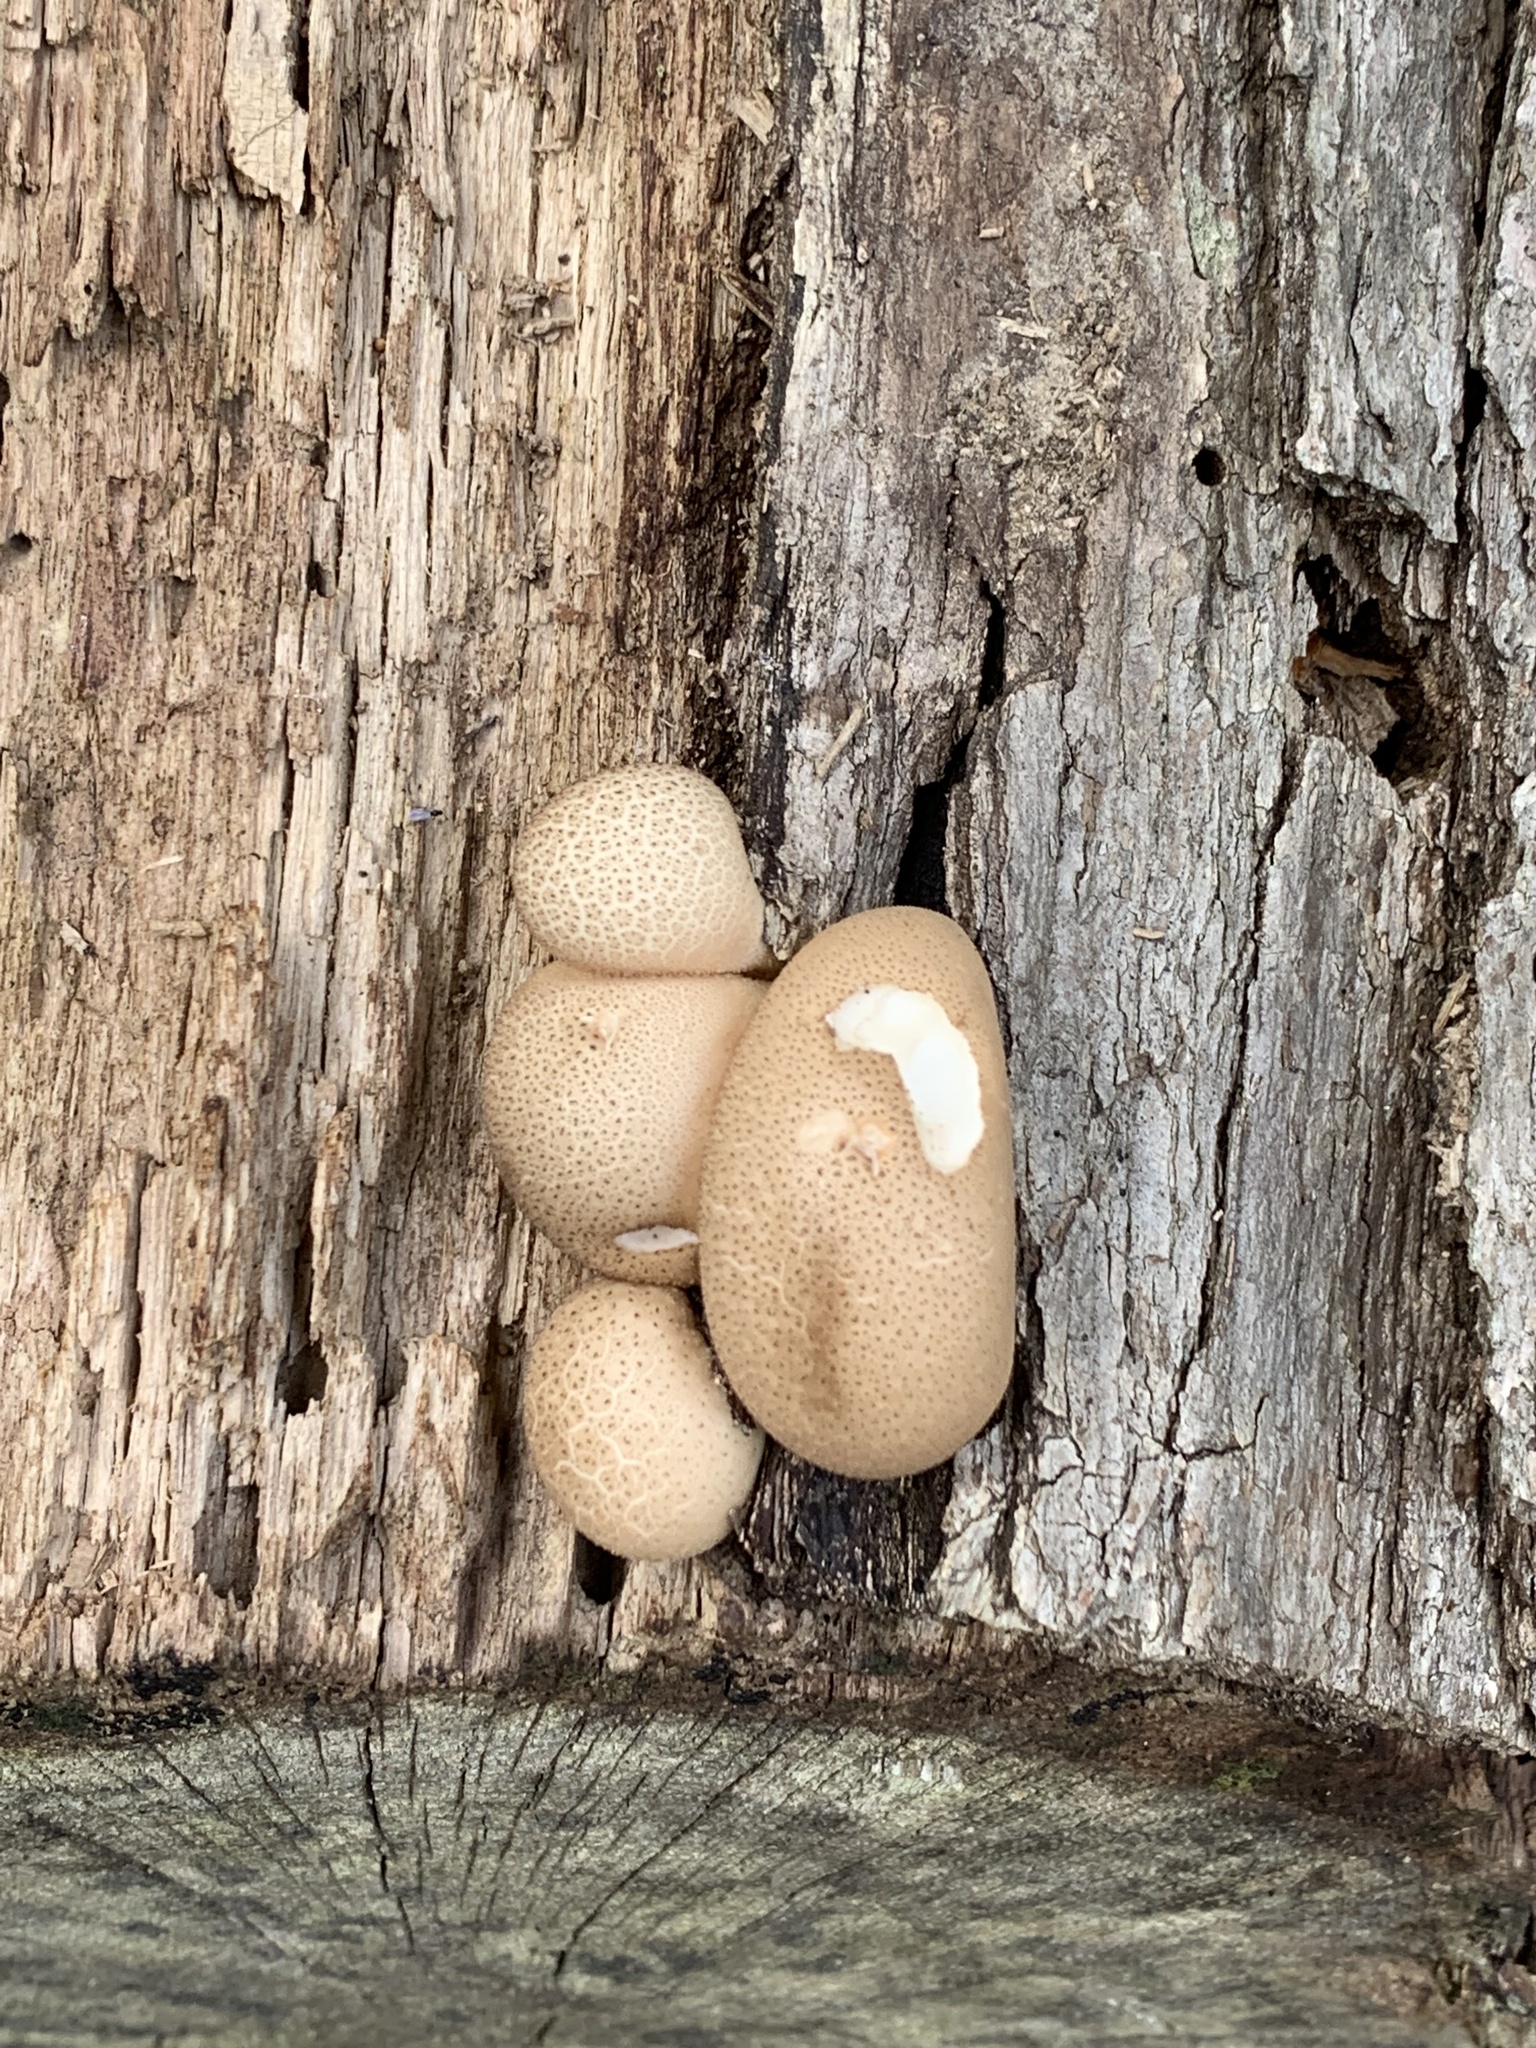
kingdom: Fungi
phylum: Basidiomycota
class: Agaricomycetes
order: Agaricales
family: Lycoperdaceae
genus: Apioperdon
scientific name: Apioperdon pyriforme
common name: Pear-shaped puffball
